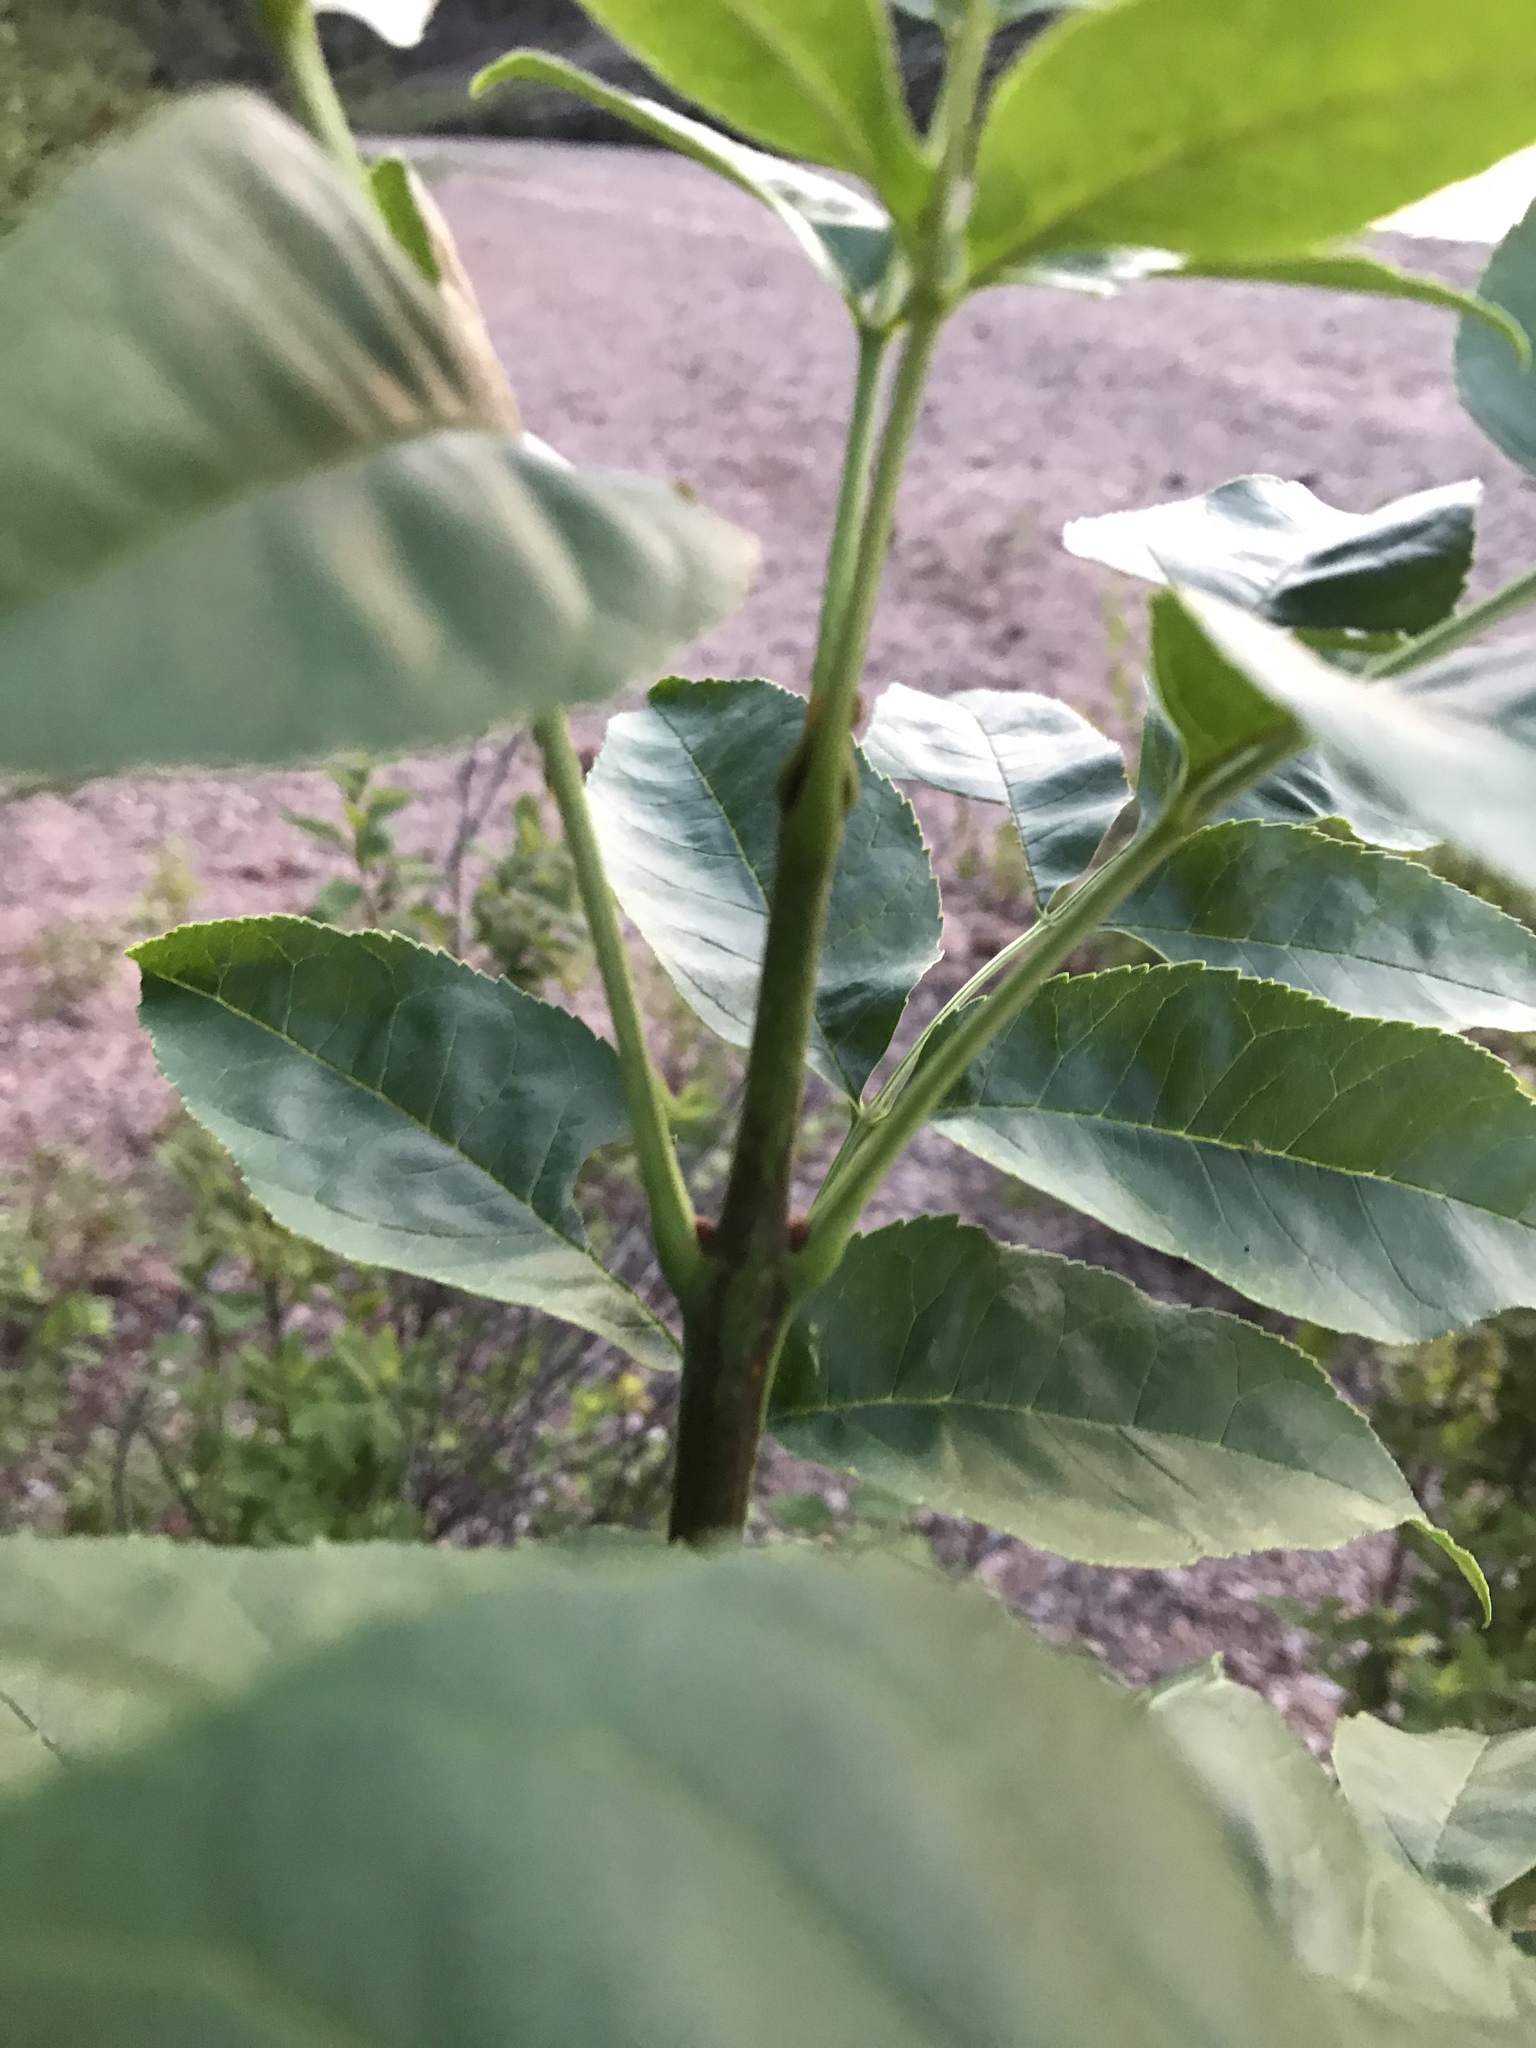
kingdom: Plantae
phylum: Tracheophyta
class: Magnoliopsida
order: Lamiales
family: Oleaceae
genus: Fraxinus
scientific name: Fraxinus pennsylvanica
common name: Green ash
